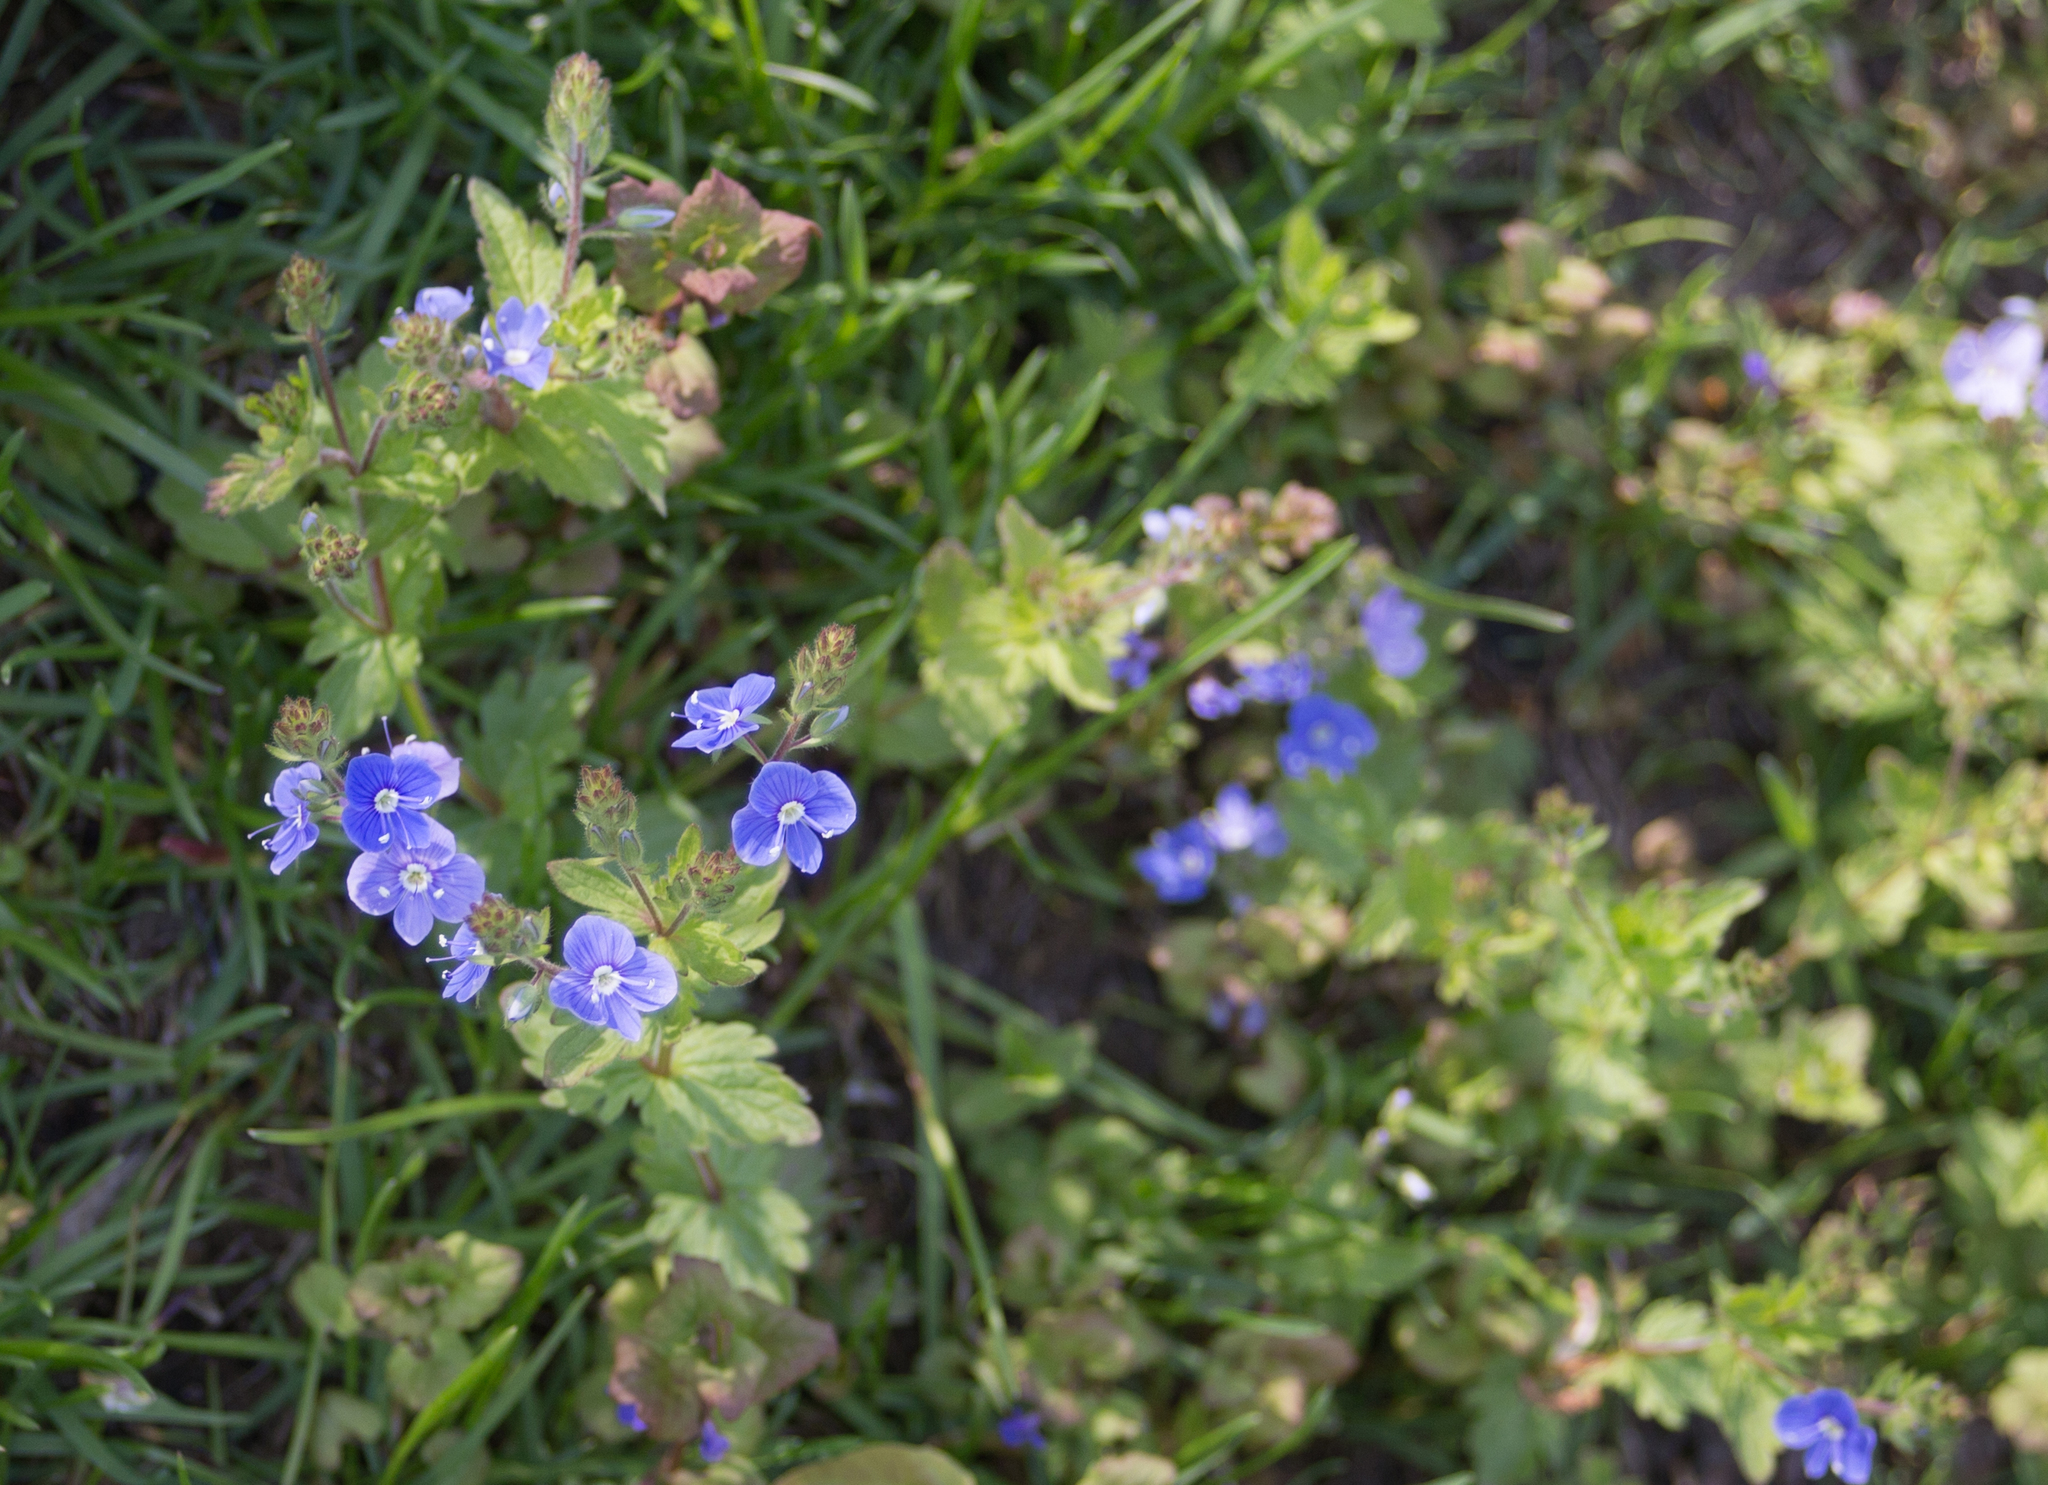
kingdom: Plantae
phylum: Tracheophyta
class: Magnoliopsida
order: Lamiales
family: Plantaginaceae
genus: Veronica
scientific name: Veronica chamaedrys
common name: Germander speedwell
